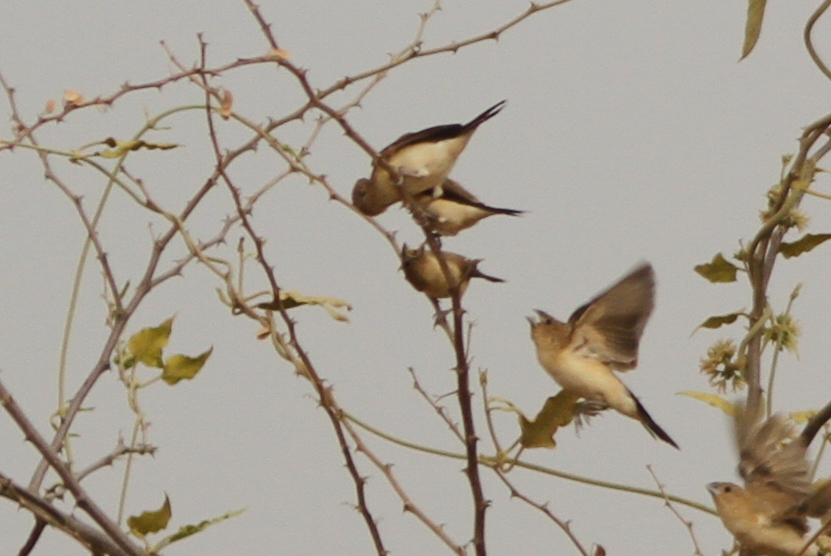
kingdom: Animalia
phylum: Chordata
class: Aves
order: Passeriformes
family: Estrildidae
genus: Euodice
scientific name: Euodice cantans
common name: African silverbill
